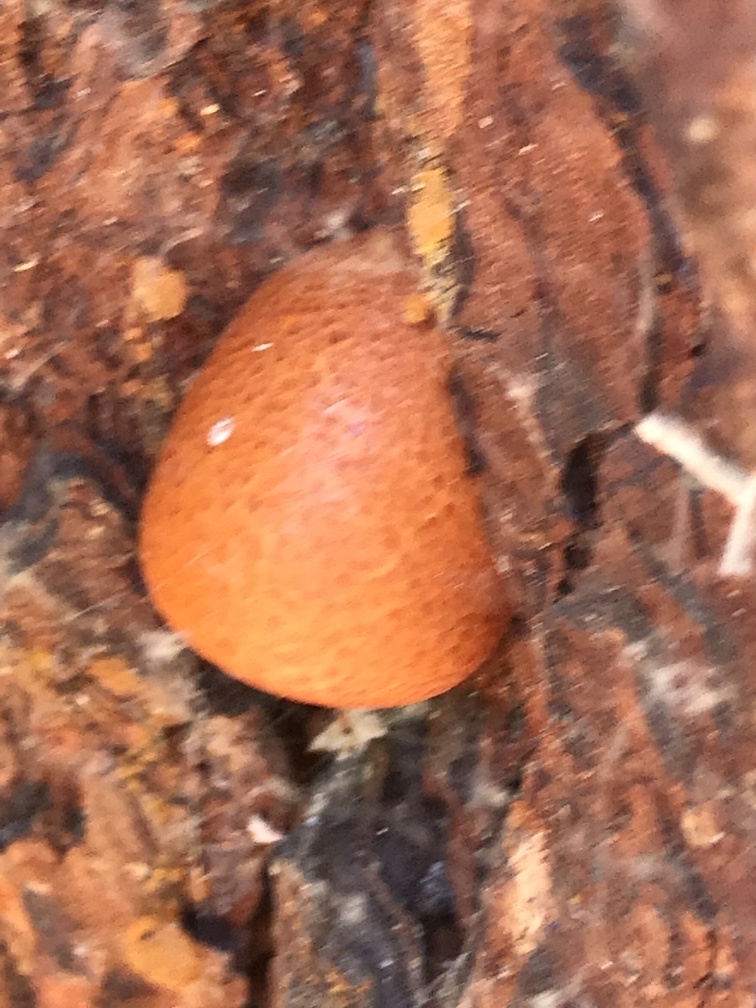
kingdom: Fungi
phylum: Basidiomycota
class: Agaricomycetes
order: Polyporales
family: Polyporaceae
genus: Cryptoporus
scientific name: Cryptoporus volvatus
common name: Veiled polypore
